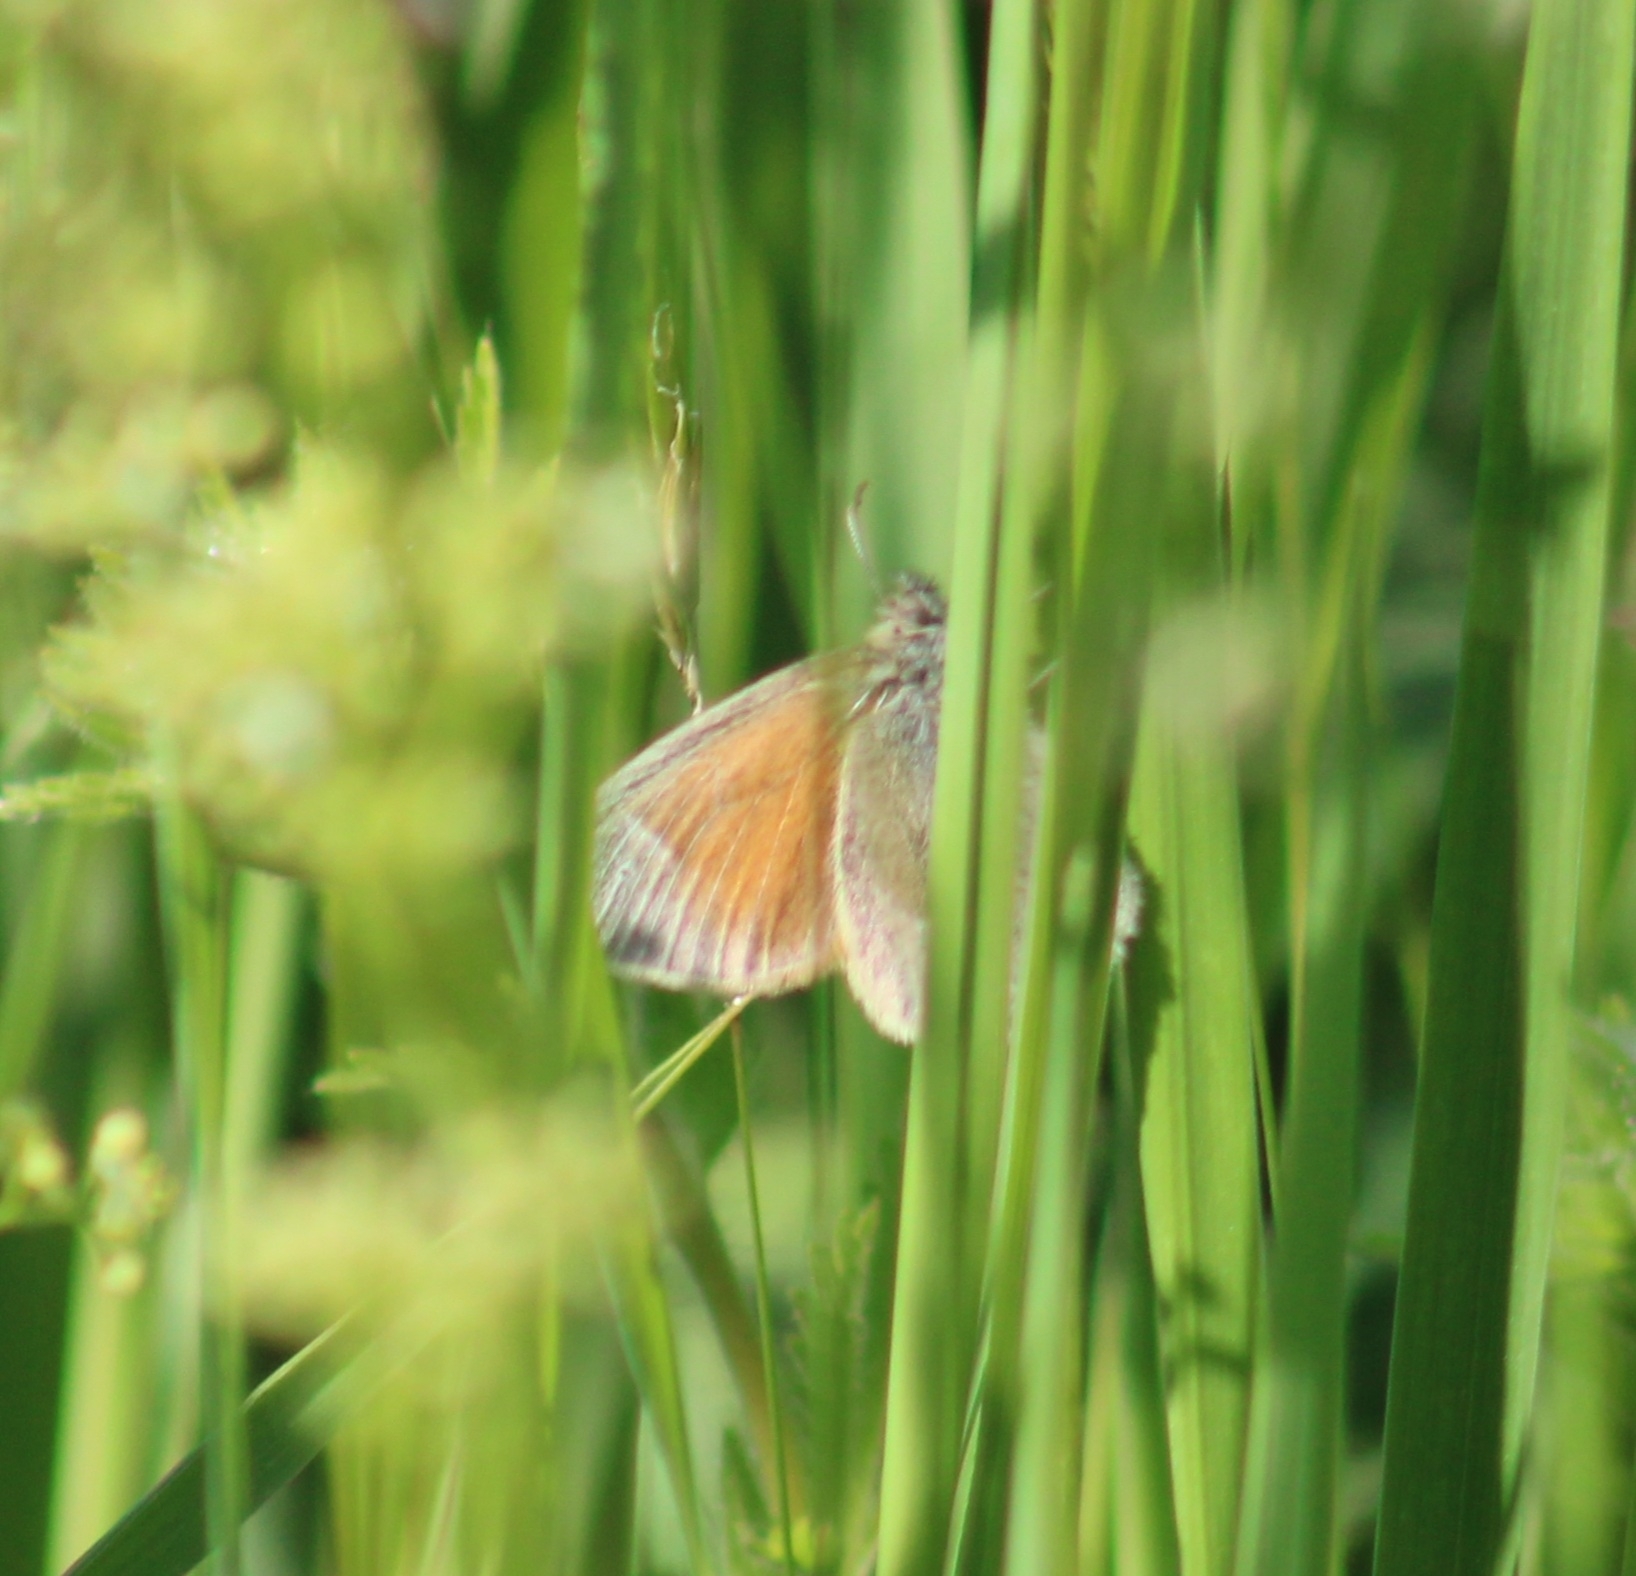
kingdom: Animalia
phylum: Arthropoda
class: Insecta
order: Lepidoptera
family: Nymphalidae
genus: Coenonympha
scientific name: Coenonympha california
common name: Common ringlet
